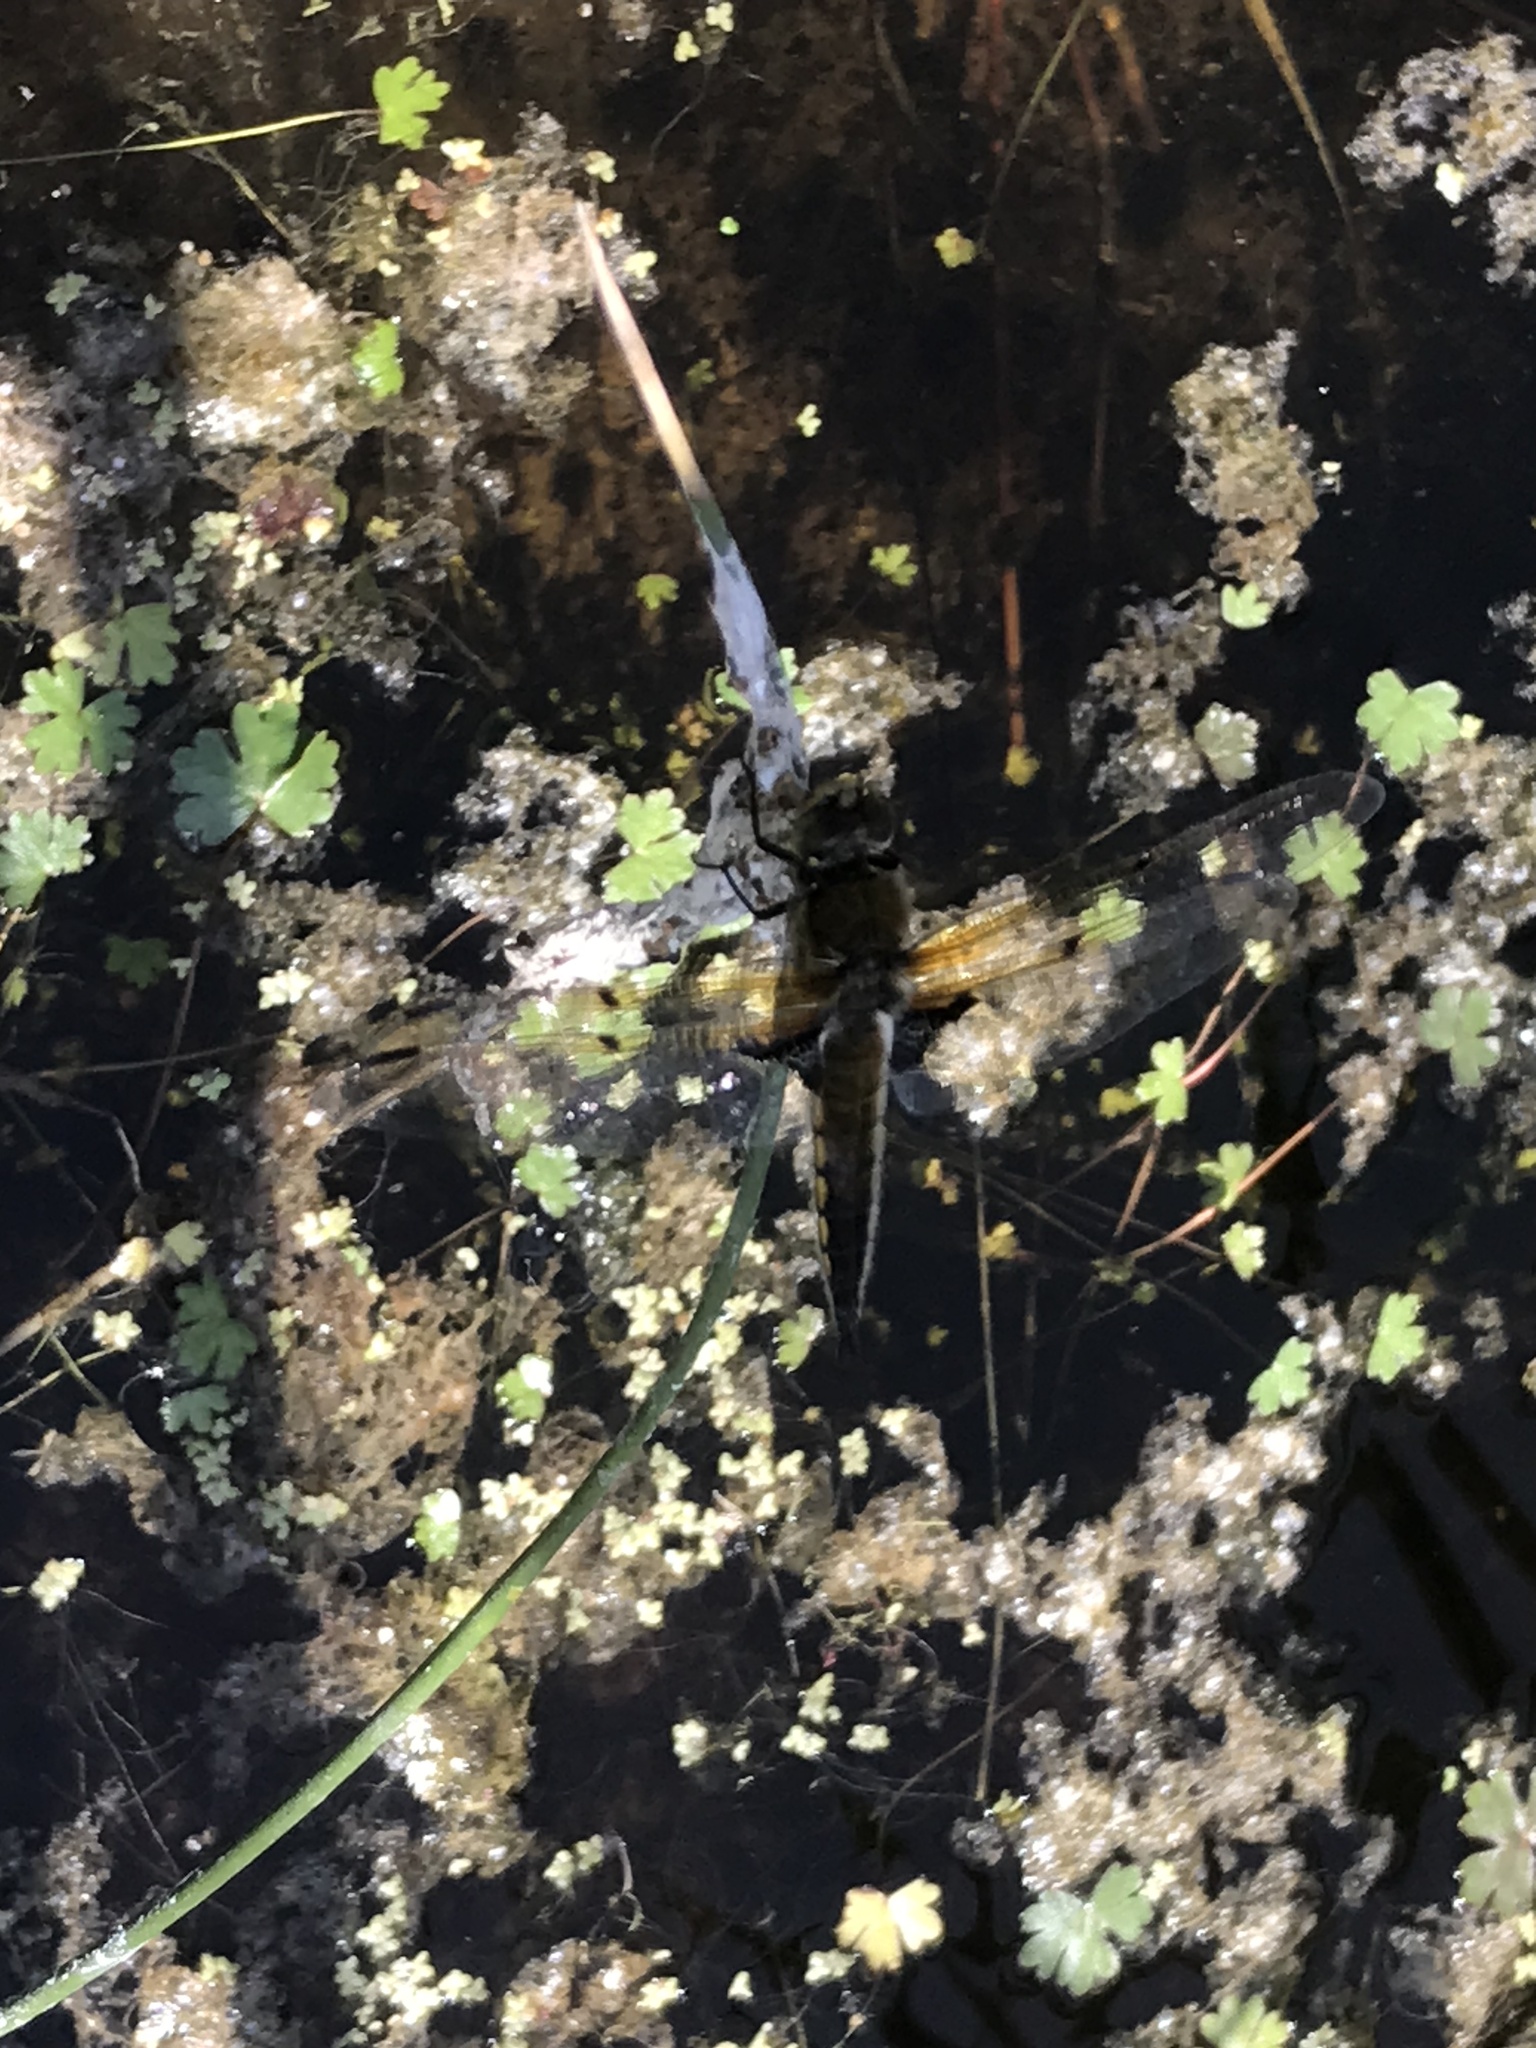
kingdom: Animalia
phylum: Arthropoda
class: Insecta
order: Odonata
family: Libellulidae
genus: Libellula
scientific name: Libellula quadrimaculata
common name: Four-spotted chaser
